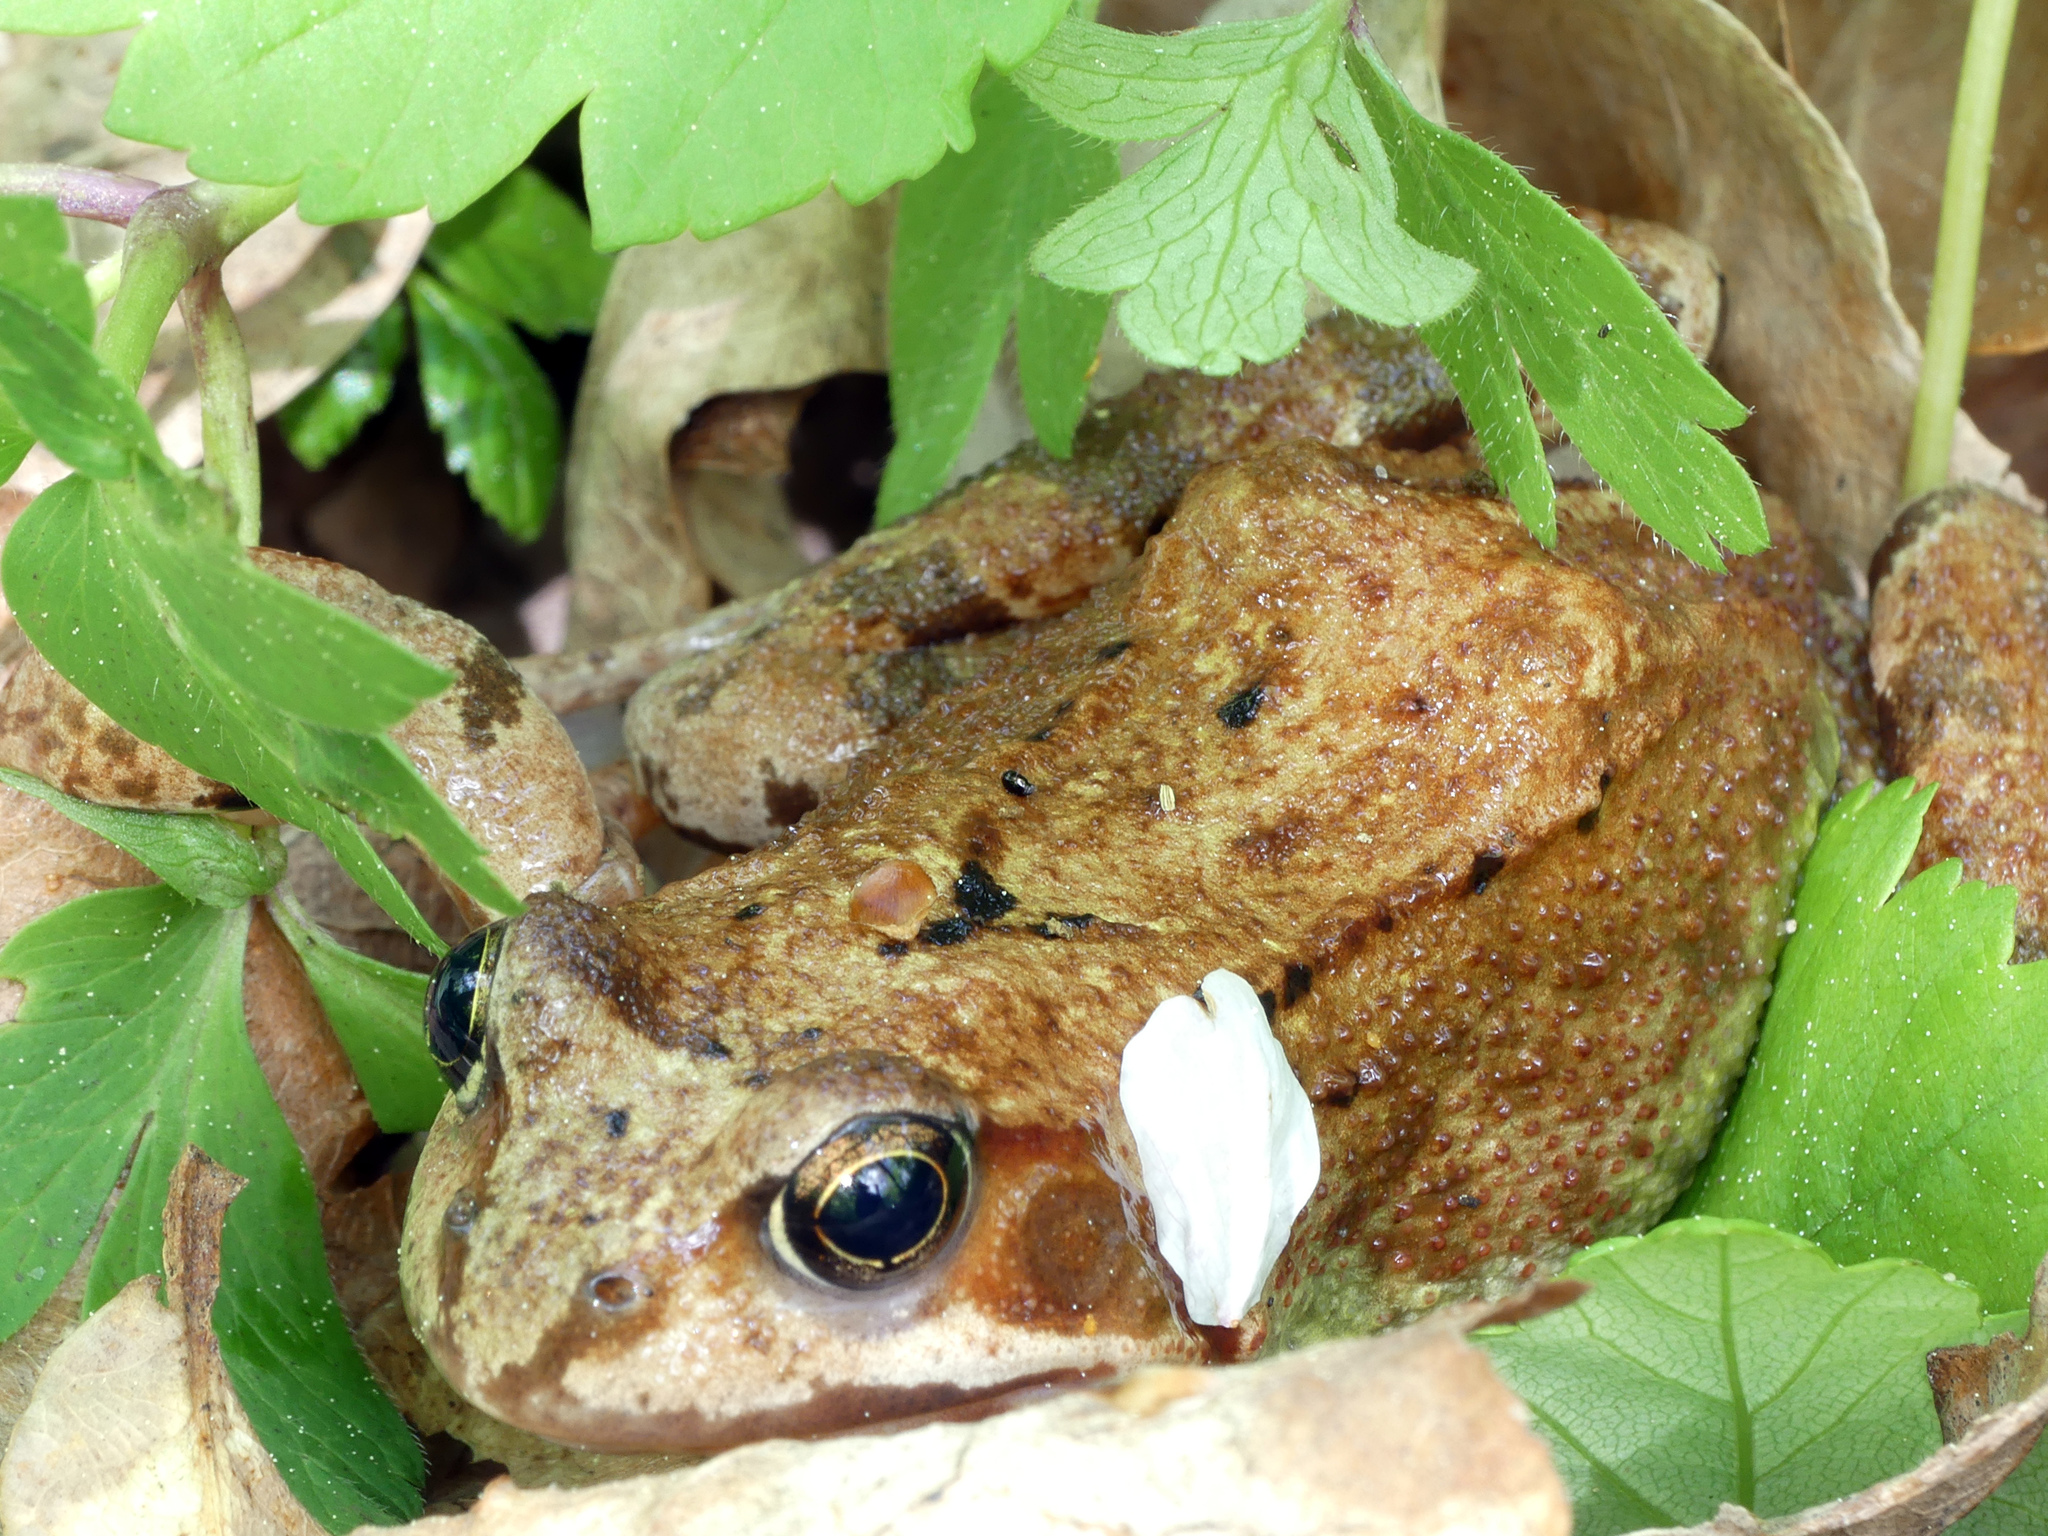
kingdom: Animalia
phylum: Chordata
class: Amphibia
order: Anura
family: Ranidae
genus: Rana
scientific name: Rana temporaria
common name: Common frog
